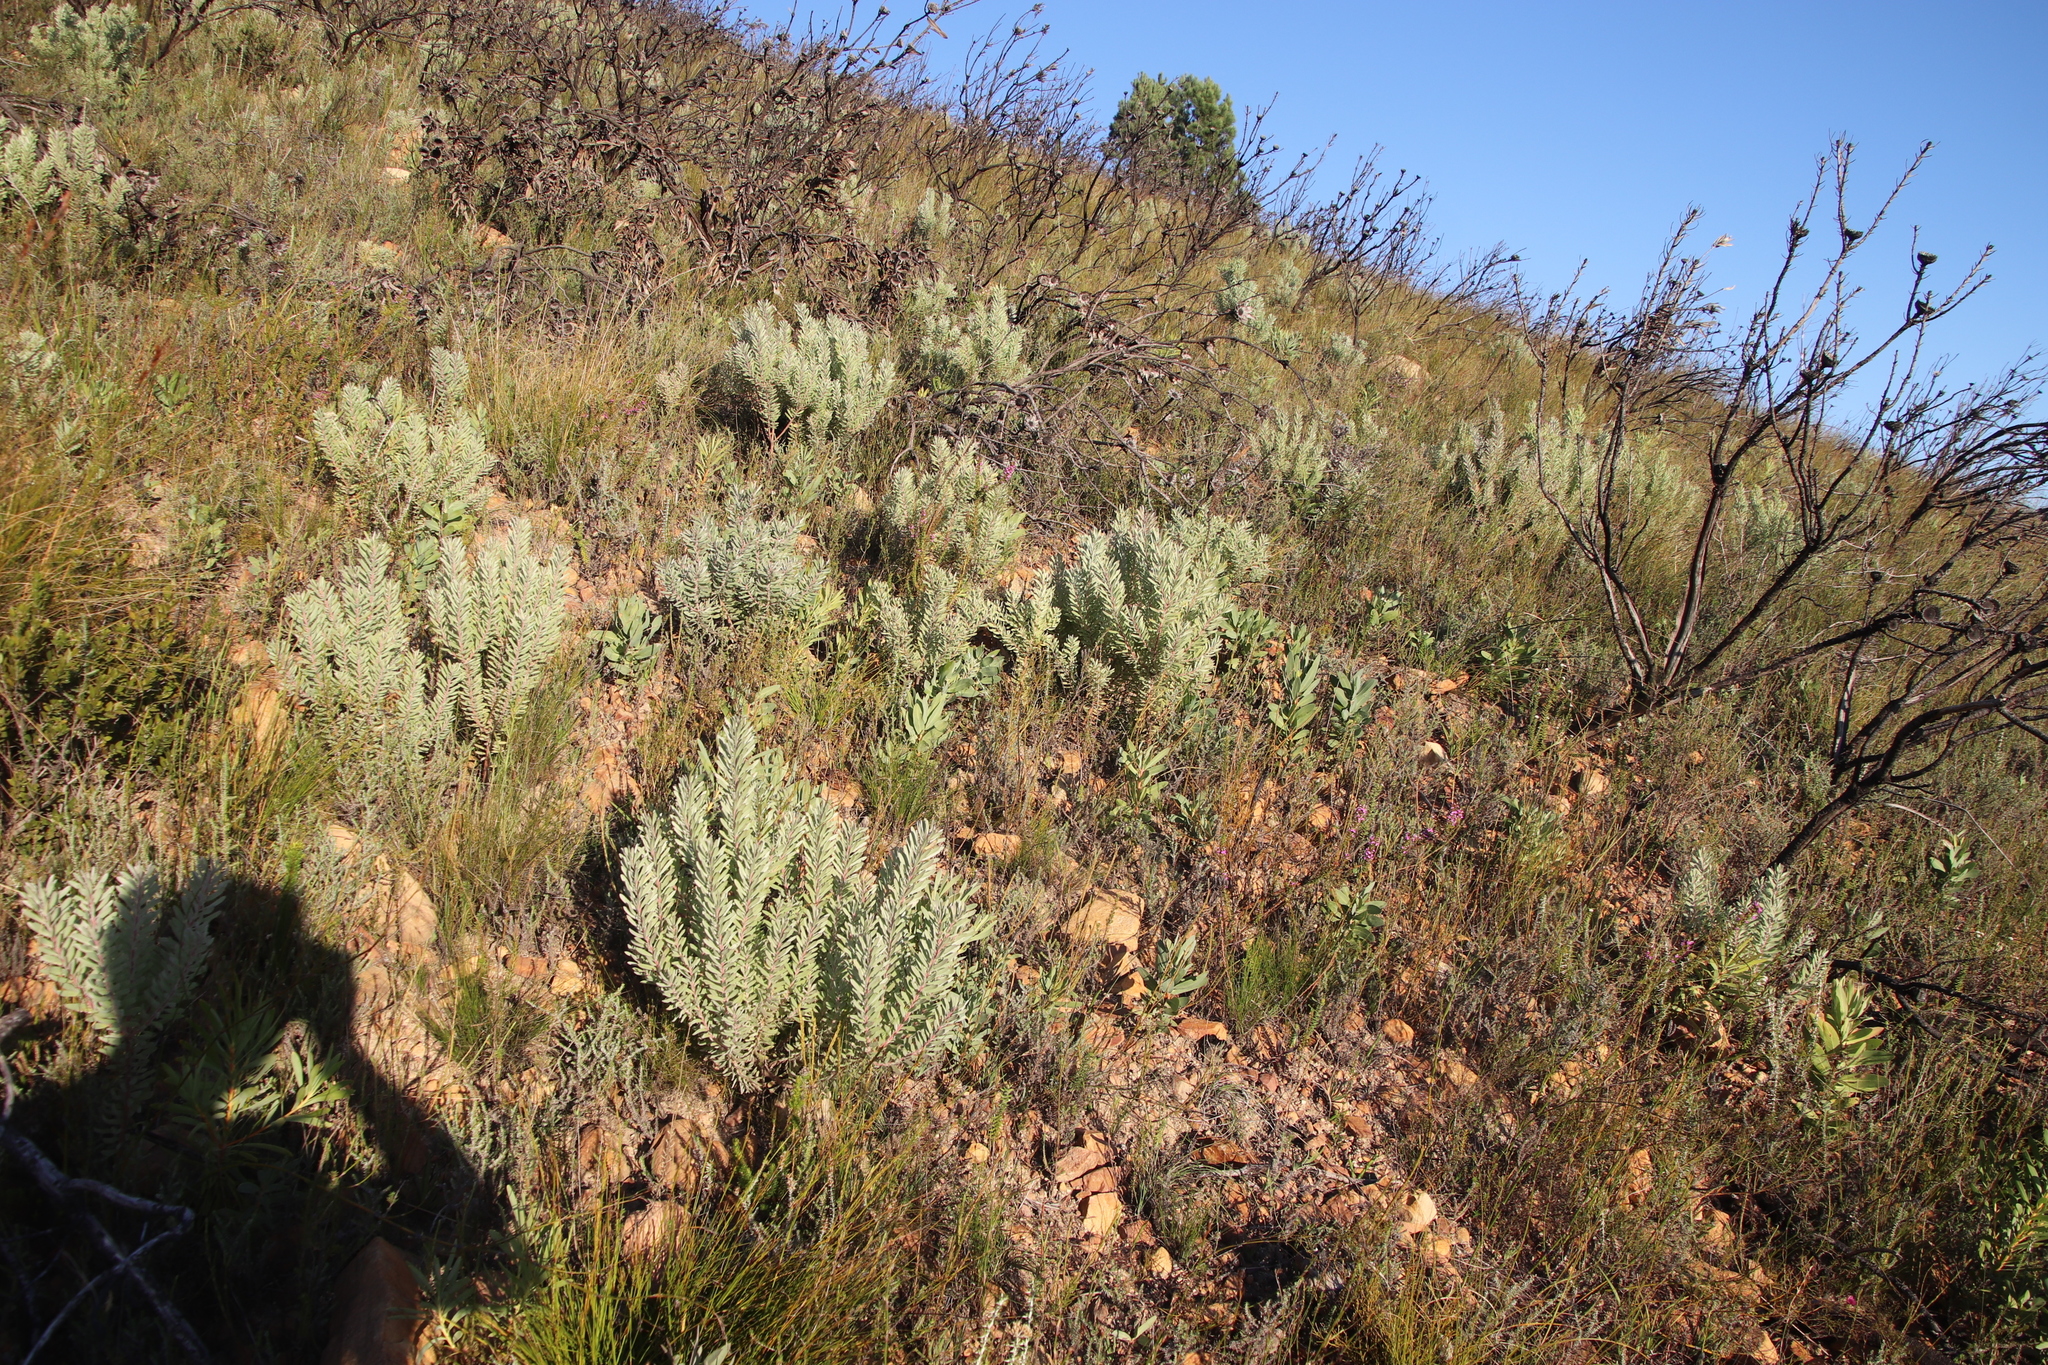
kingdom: Plantae
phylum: Tracheophyta
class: Magnoliopsida
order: Proteales
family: Proteaceae
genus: Leucadendron
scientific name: Leucadendron rubrum
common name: Spinning top
